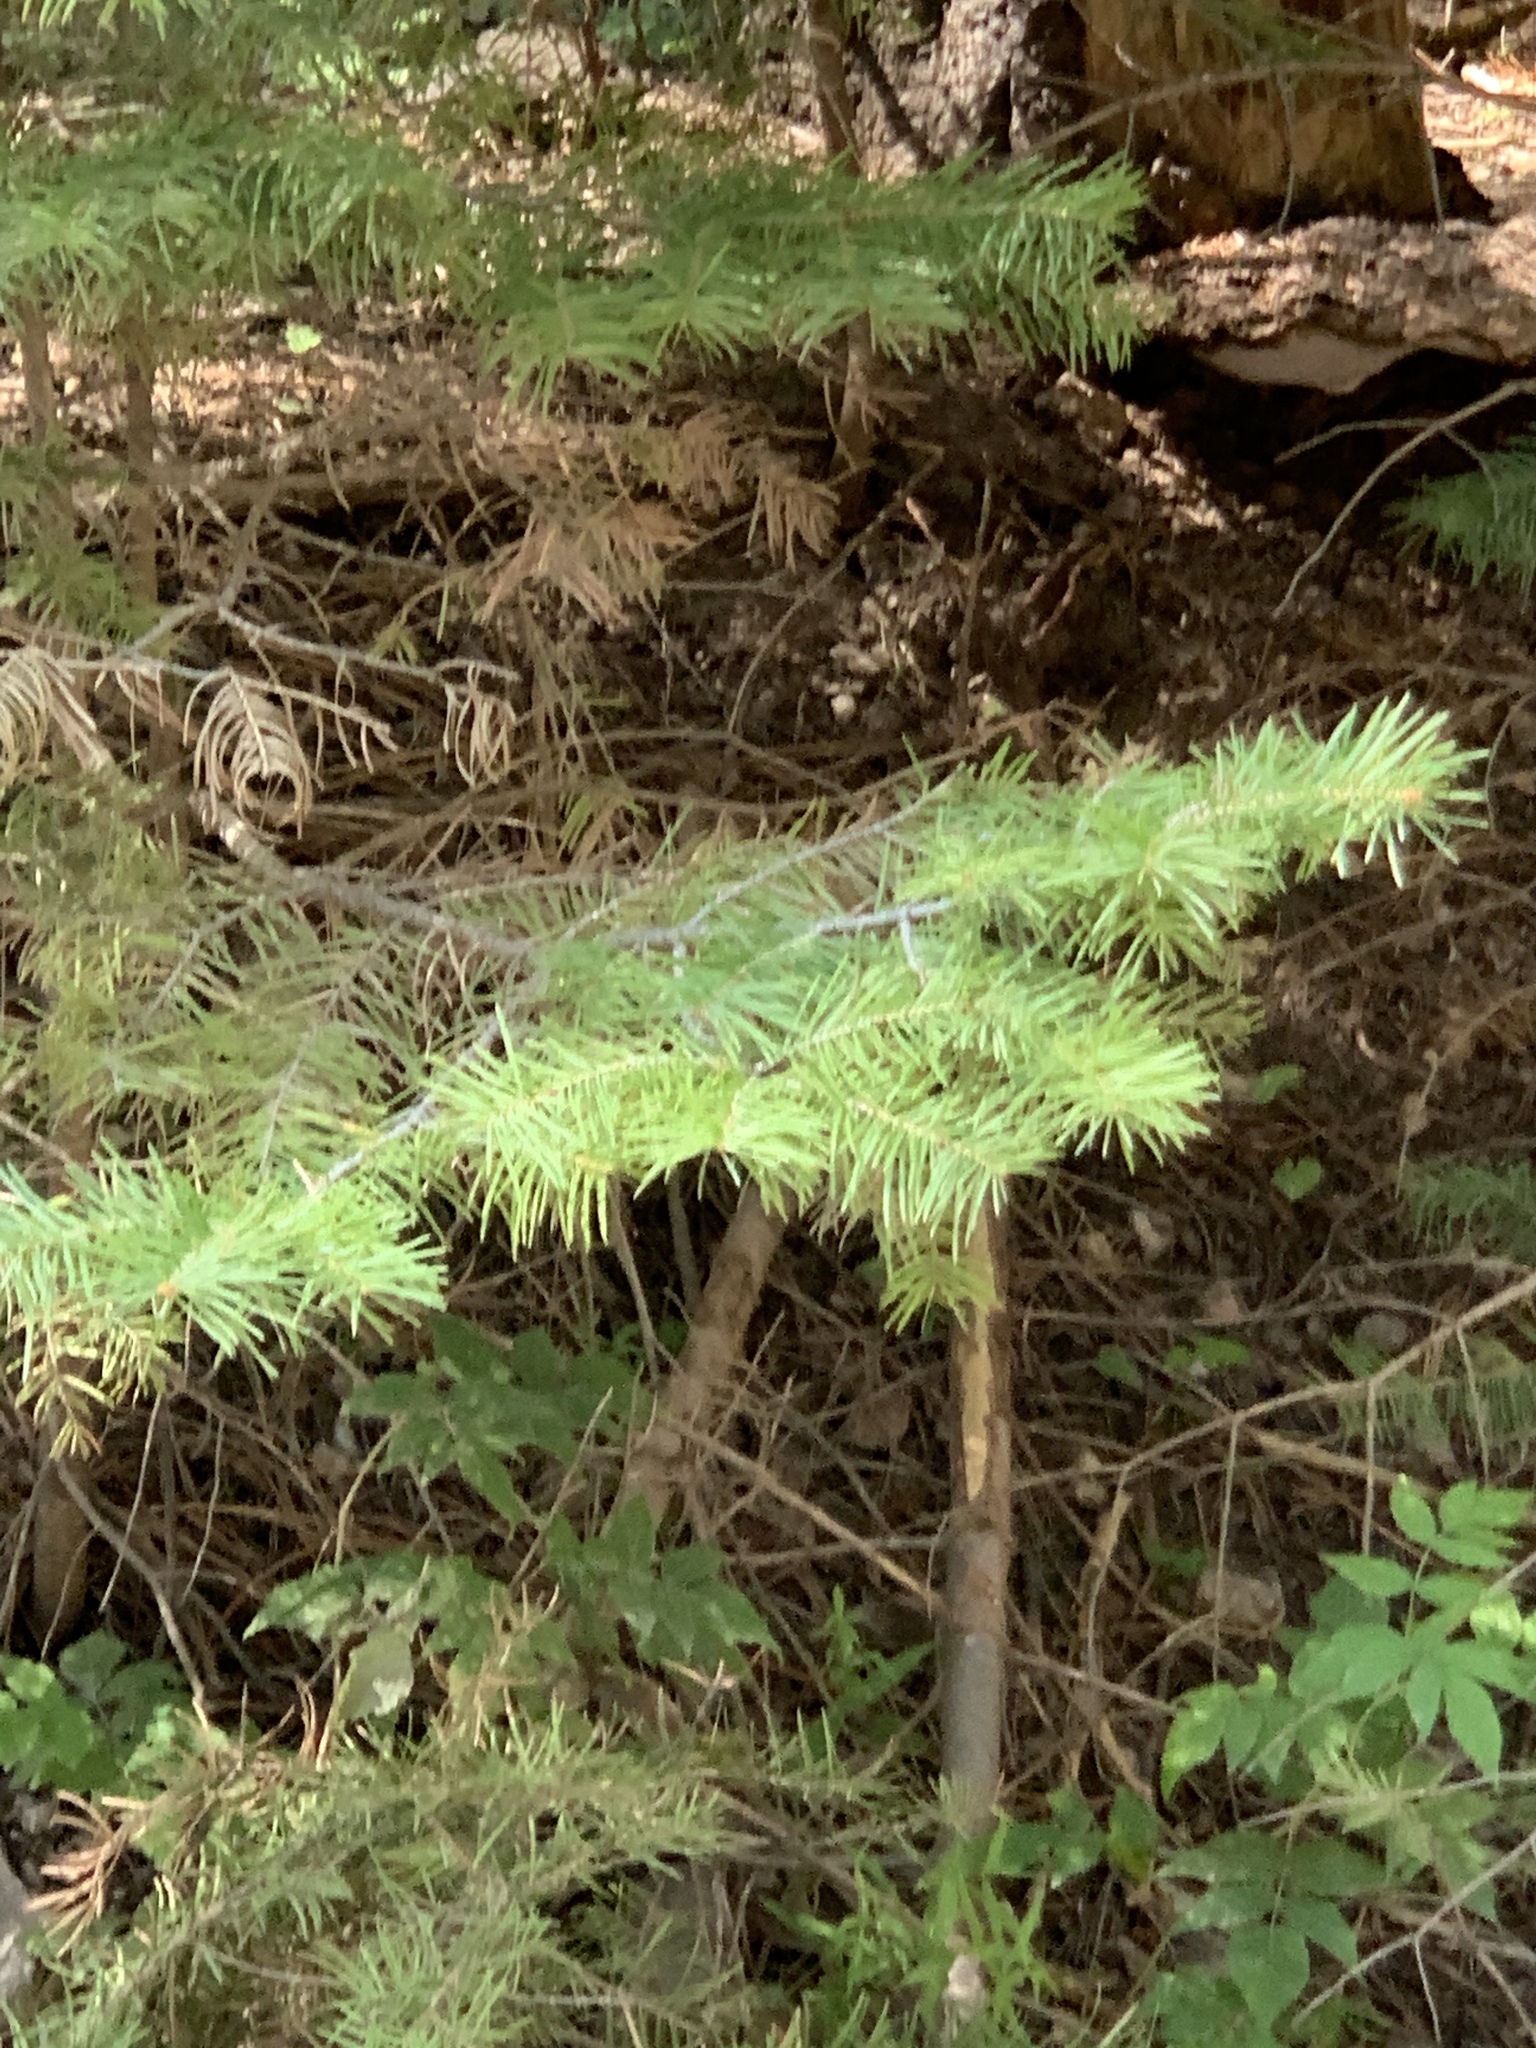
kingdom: Plantae
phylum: Tracheophyta
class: Pinopsida
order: Pinales
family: Pinaceae
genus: Abies
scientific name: Abies concolor
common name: Colorado fir
